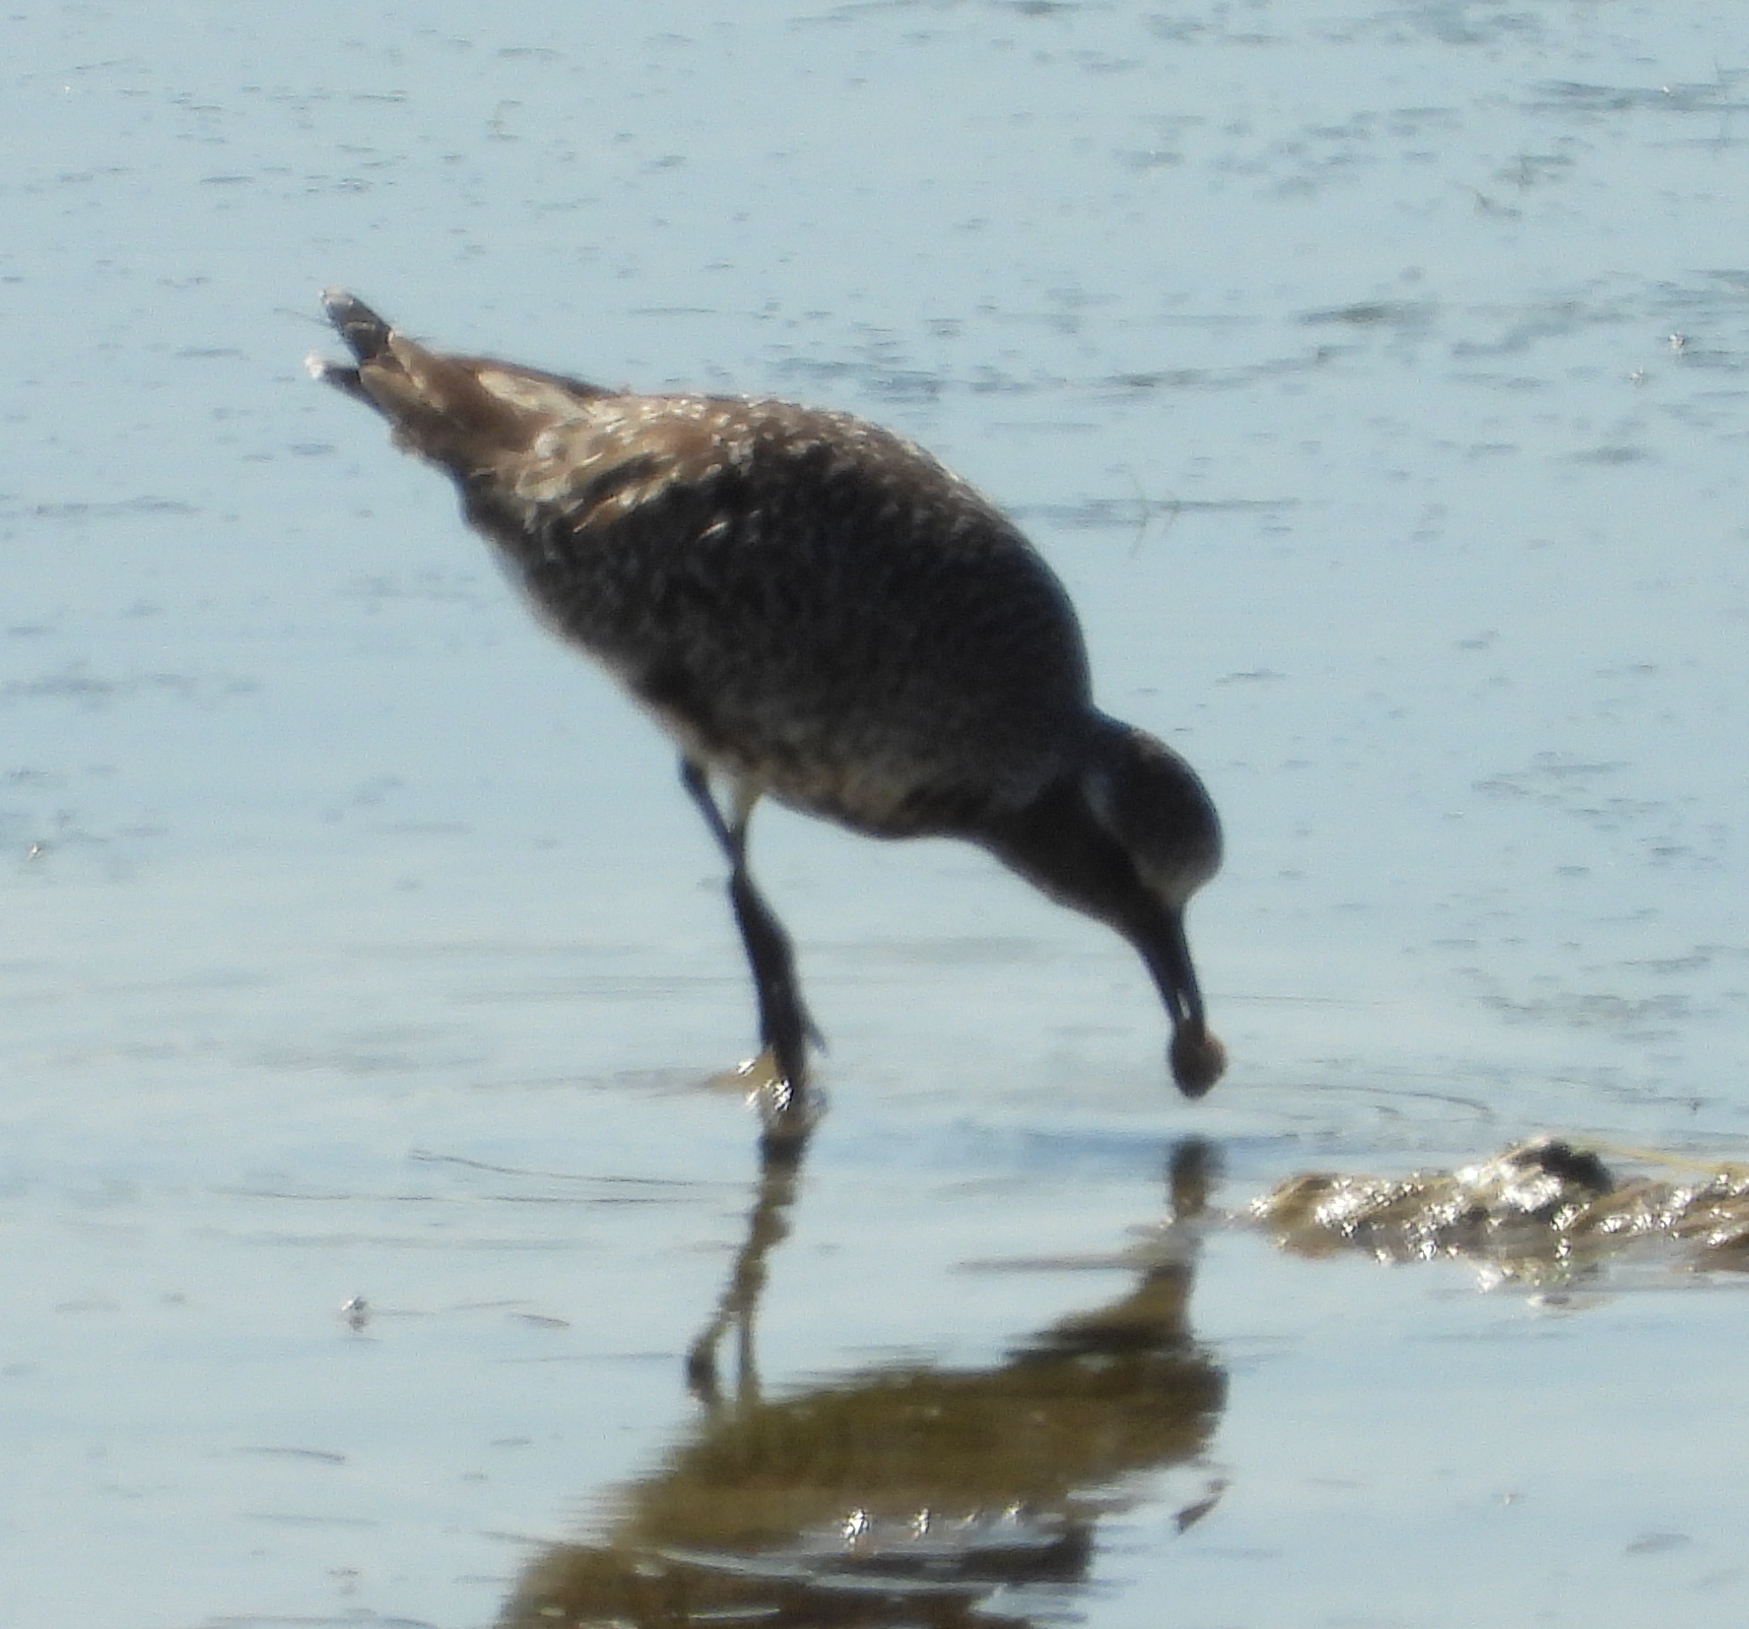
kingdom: Animalia
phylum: Chordata
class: Aves
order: Charadriiformes
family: Charadriidae
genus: Pluvialis
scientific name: Pluvialis squatarola
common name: Grey plover
